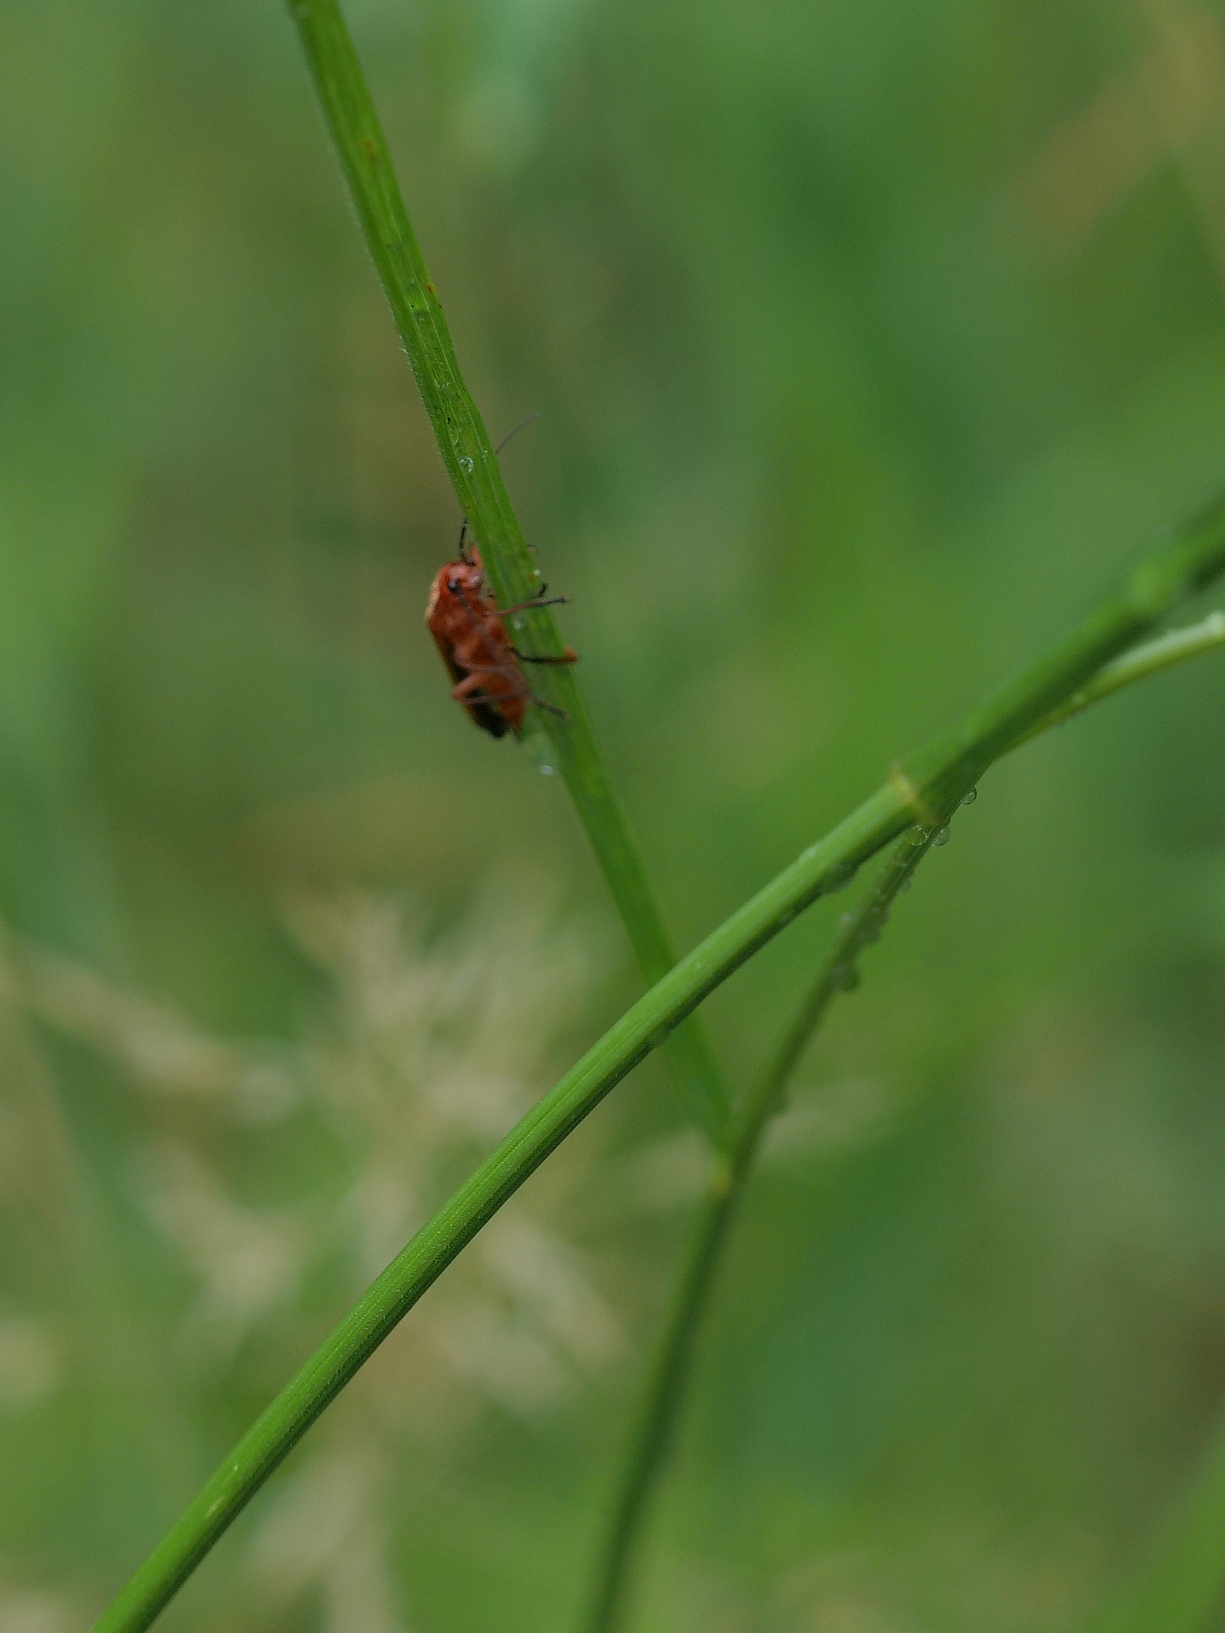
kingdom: Animalia
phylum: Arthropoda
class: Insecta
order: Coleoptera
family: Cantharidae
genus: Rhagonycha
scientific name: Rhagonycha fulva
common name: Common red soldier beetle
